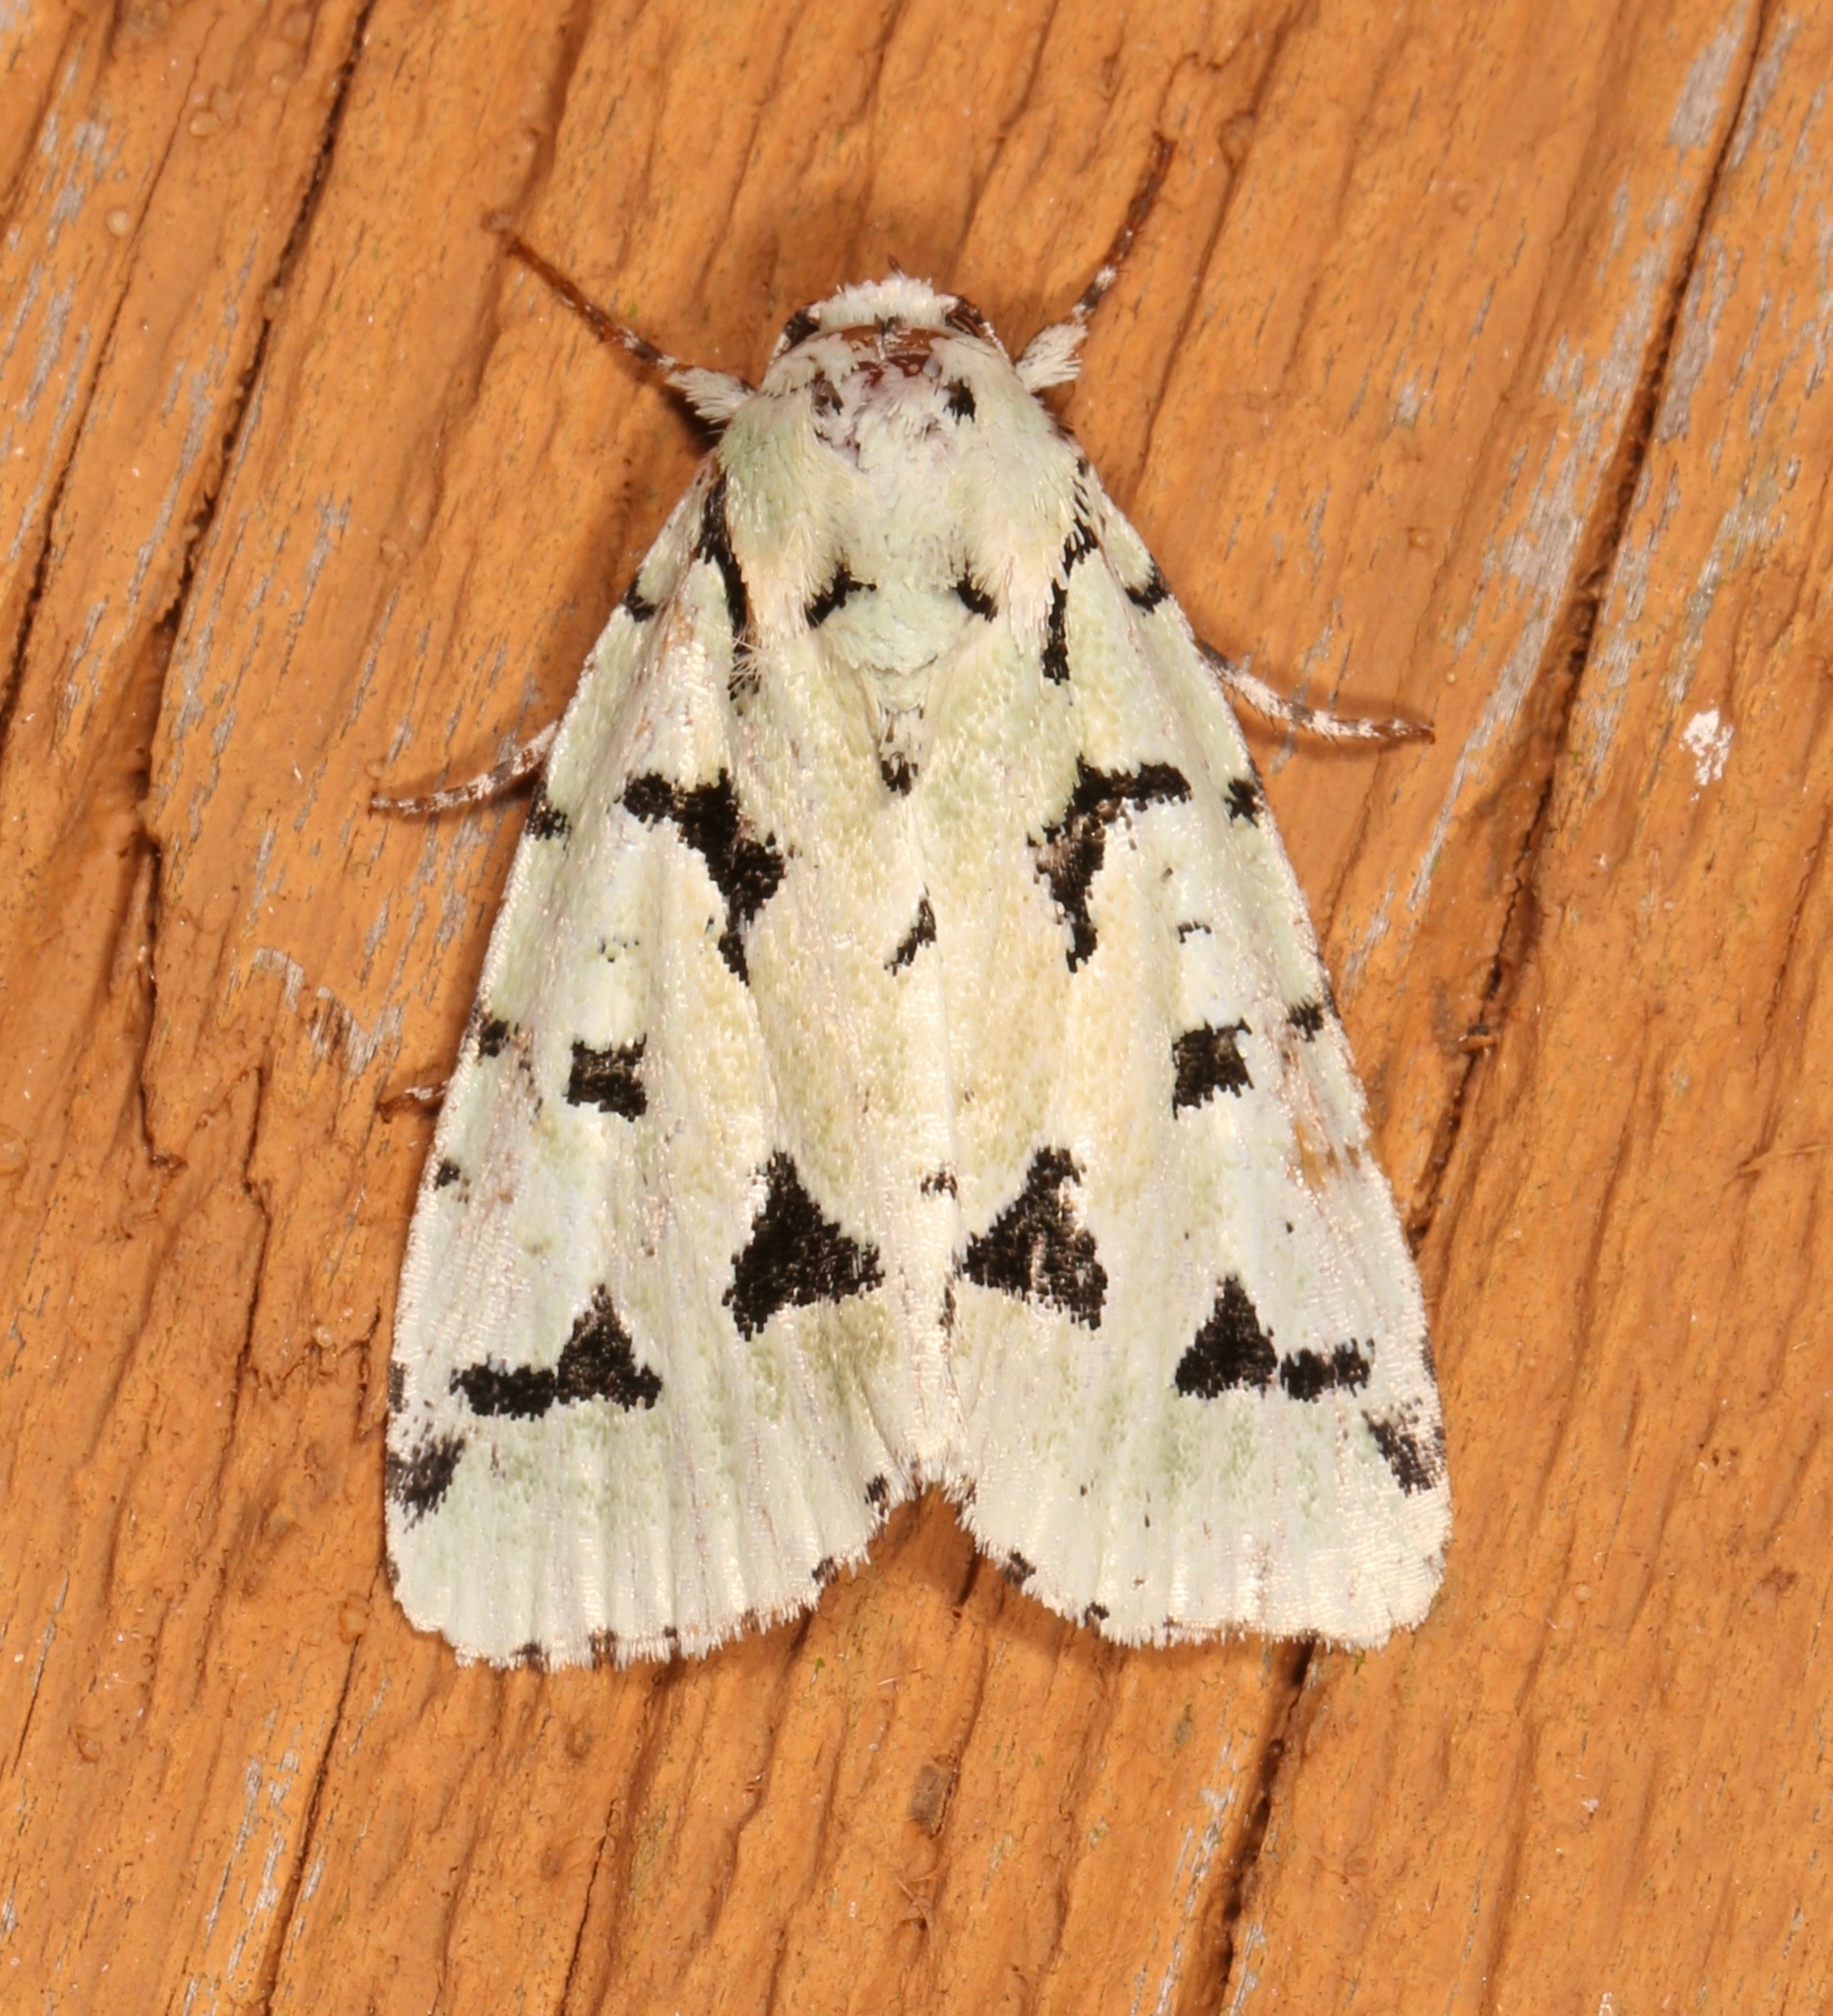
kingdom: Animalia
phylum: Arthropoda
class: Insecta
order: Lepidoptera
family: Noctuidae
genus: Acronicta
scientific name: Acronicta fallax
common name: Green marvel
